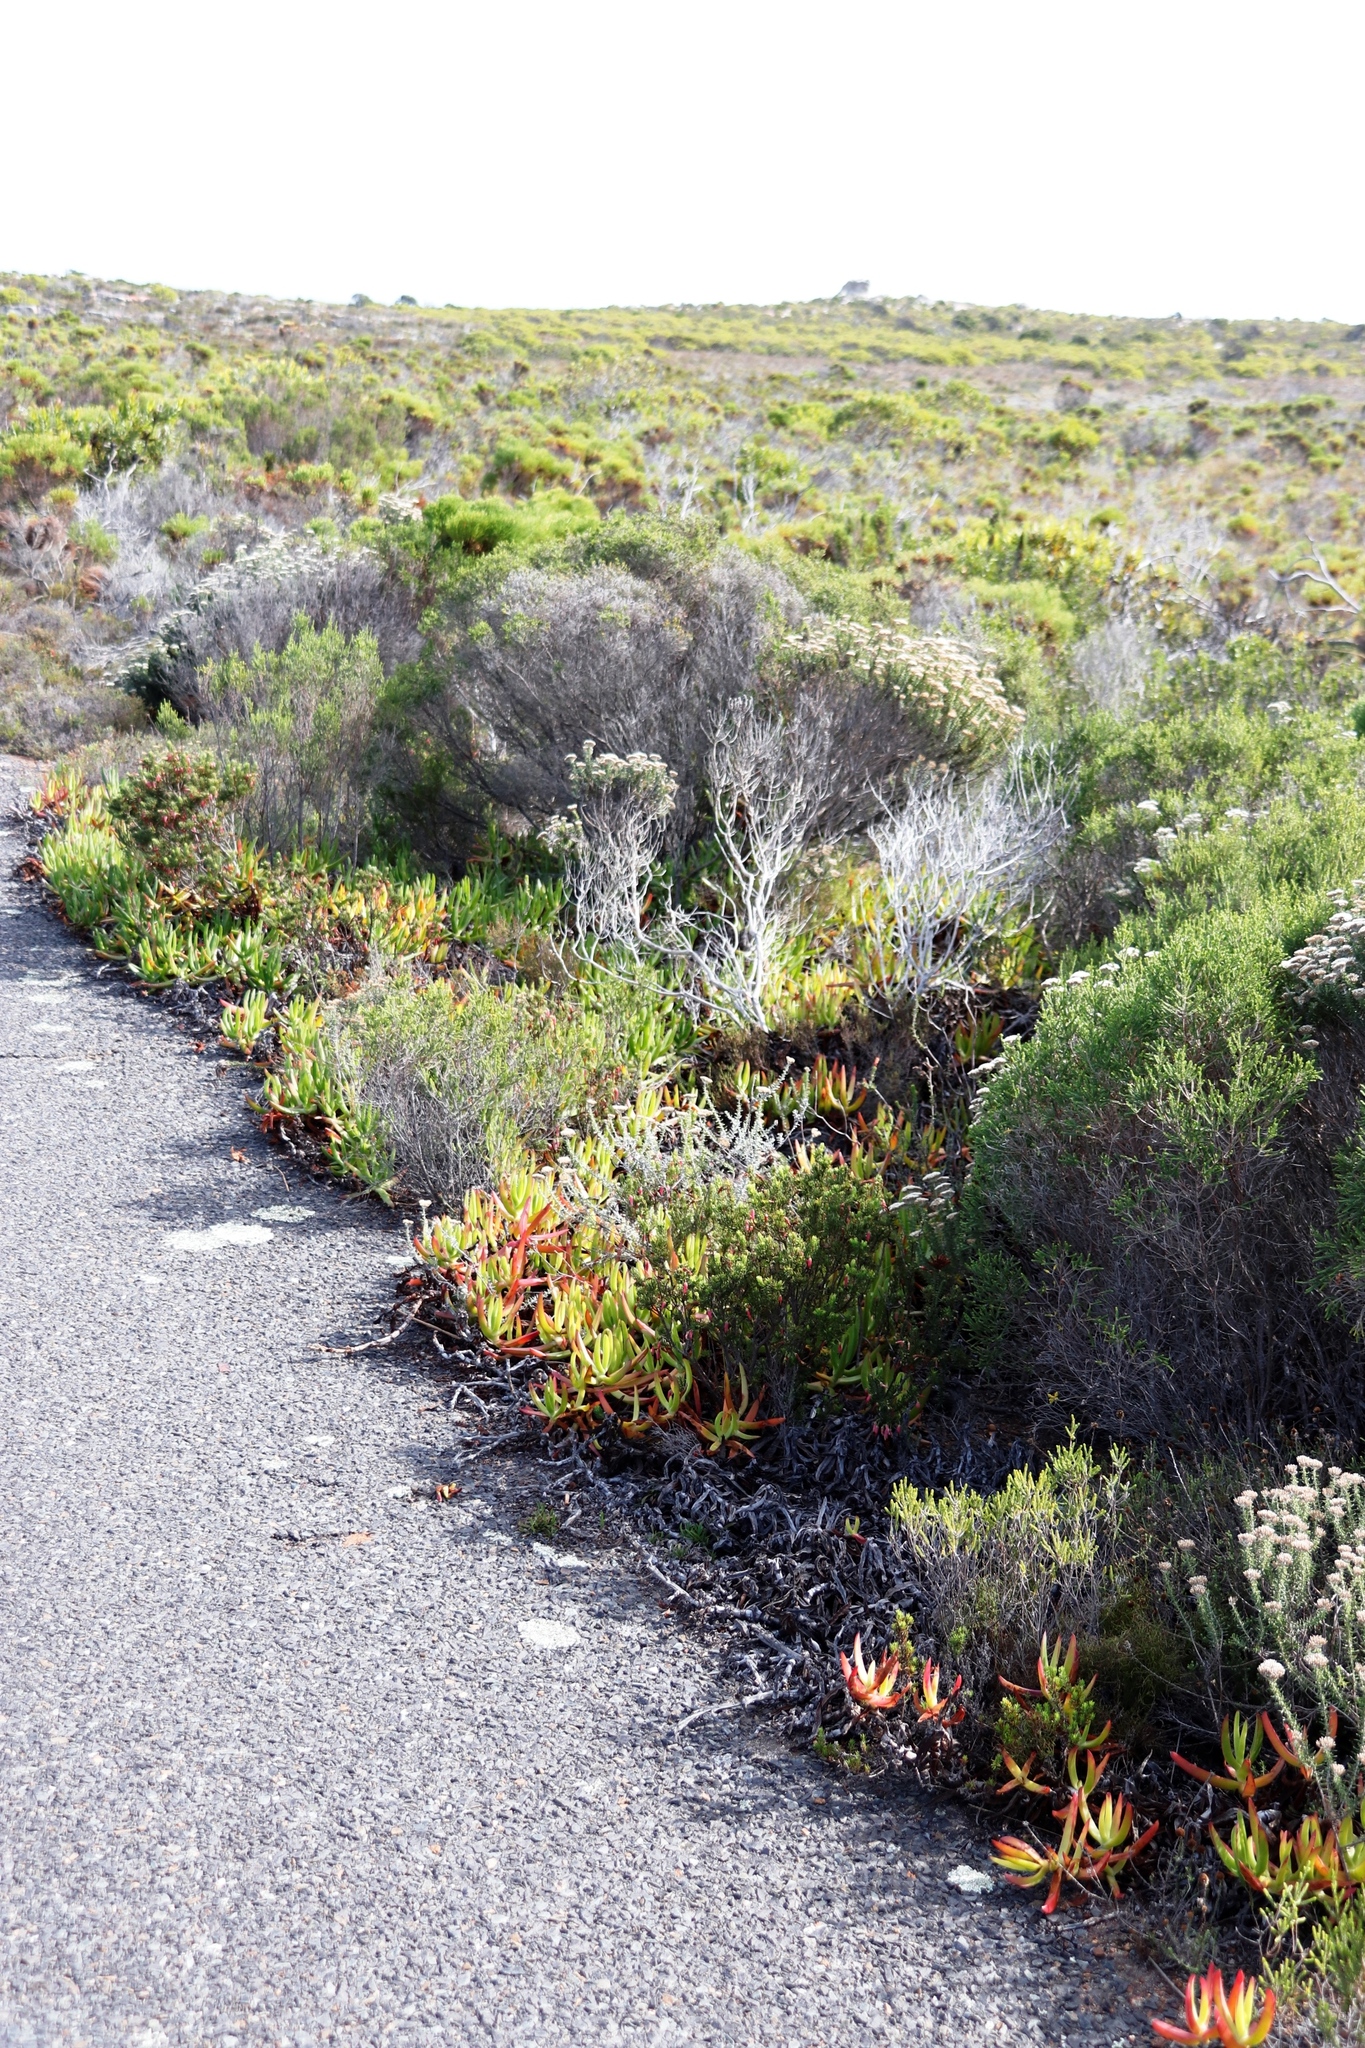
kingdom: Plantae
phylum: Tracheophyta
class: Magnoliopsida
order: Caryophyllales
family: Aizoaceae
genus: Carpobrotus
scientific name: Carpobrotus edulis
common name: Hottentot-fig
